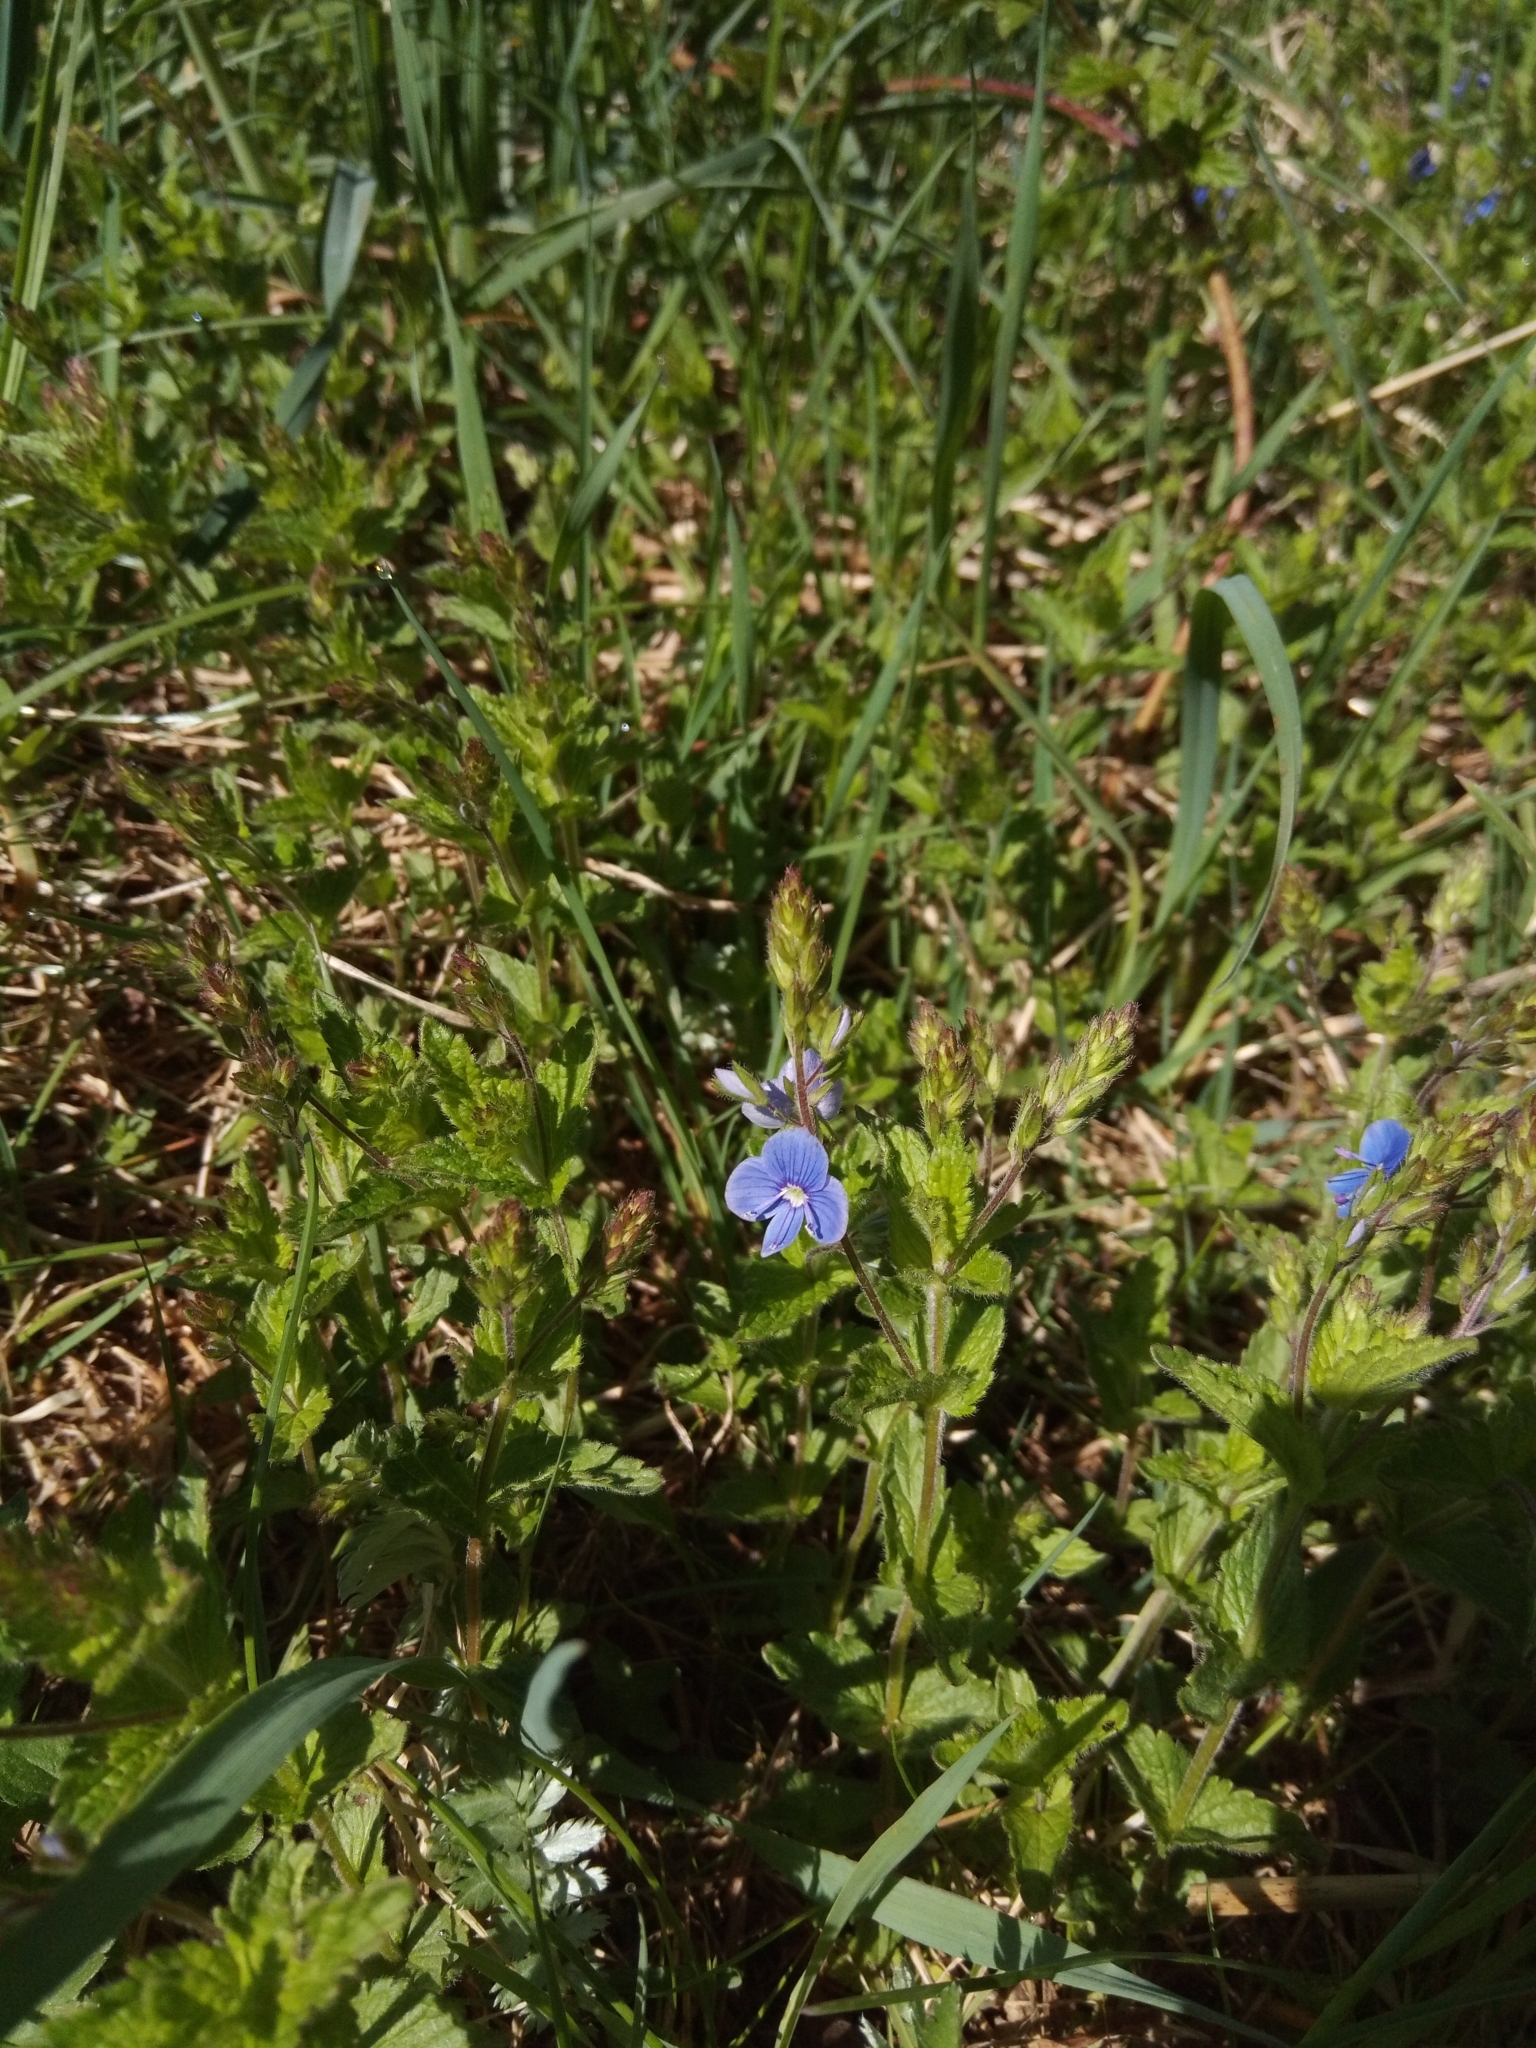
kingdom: Plantae
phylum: Tracheophyta
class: Magnoliopsida
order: Lamiales
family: Plantaginaceae
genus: Veronica
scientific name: Veronica chamaedrys
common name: Germander speedwell
